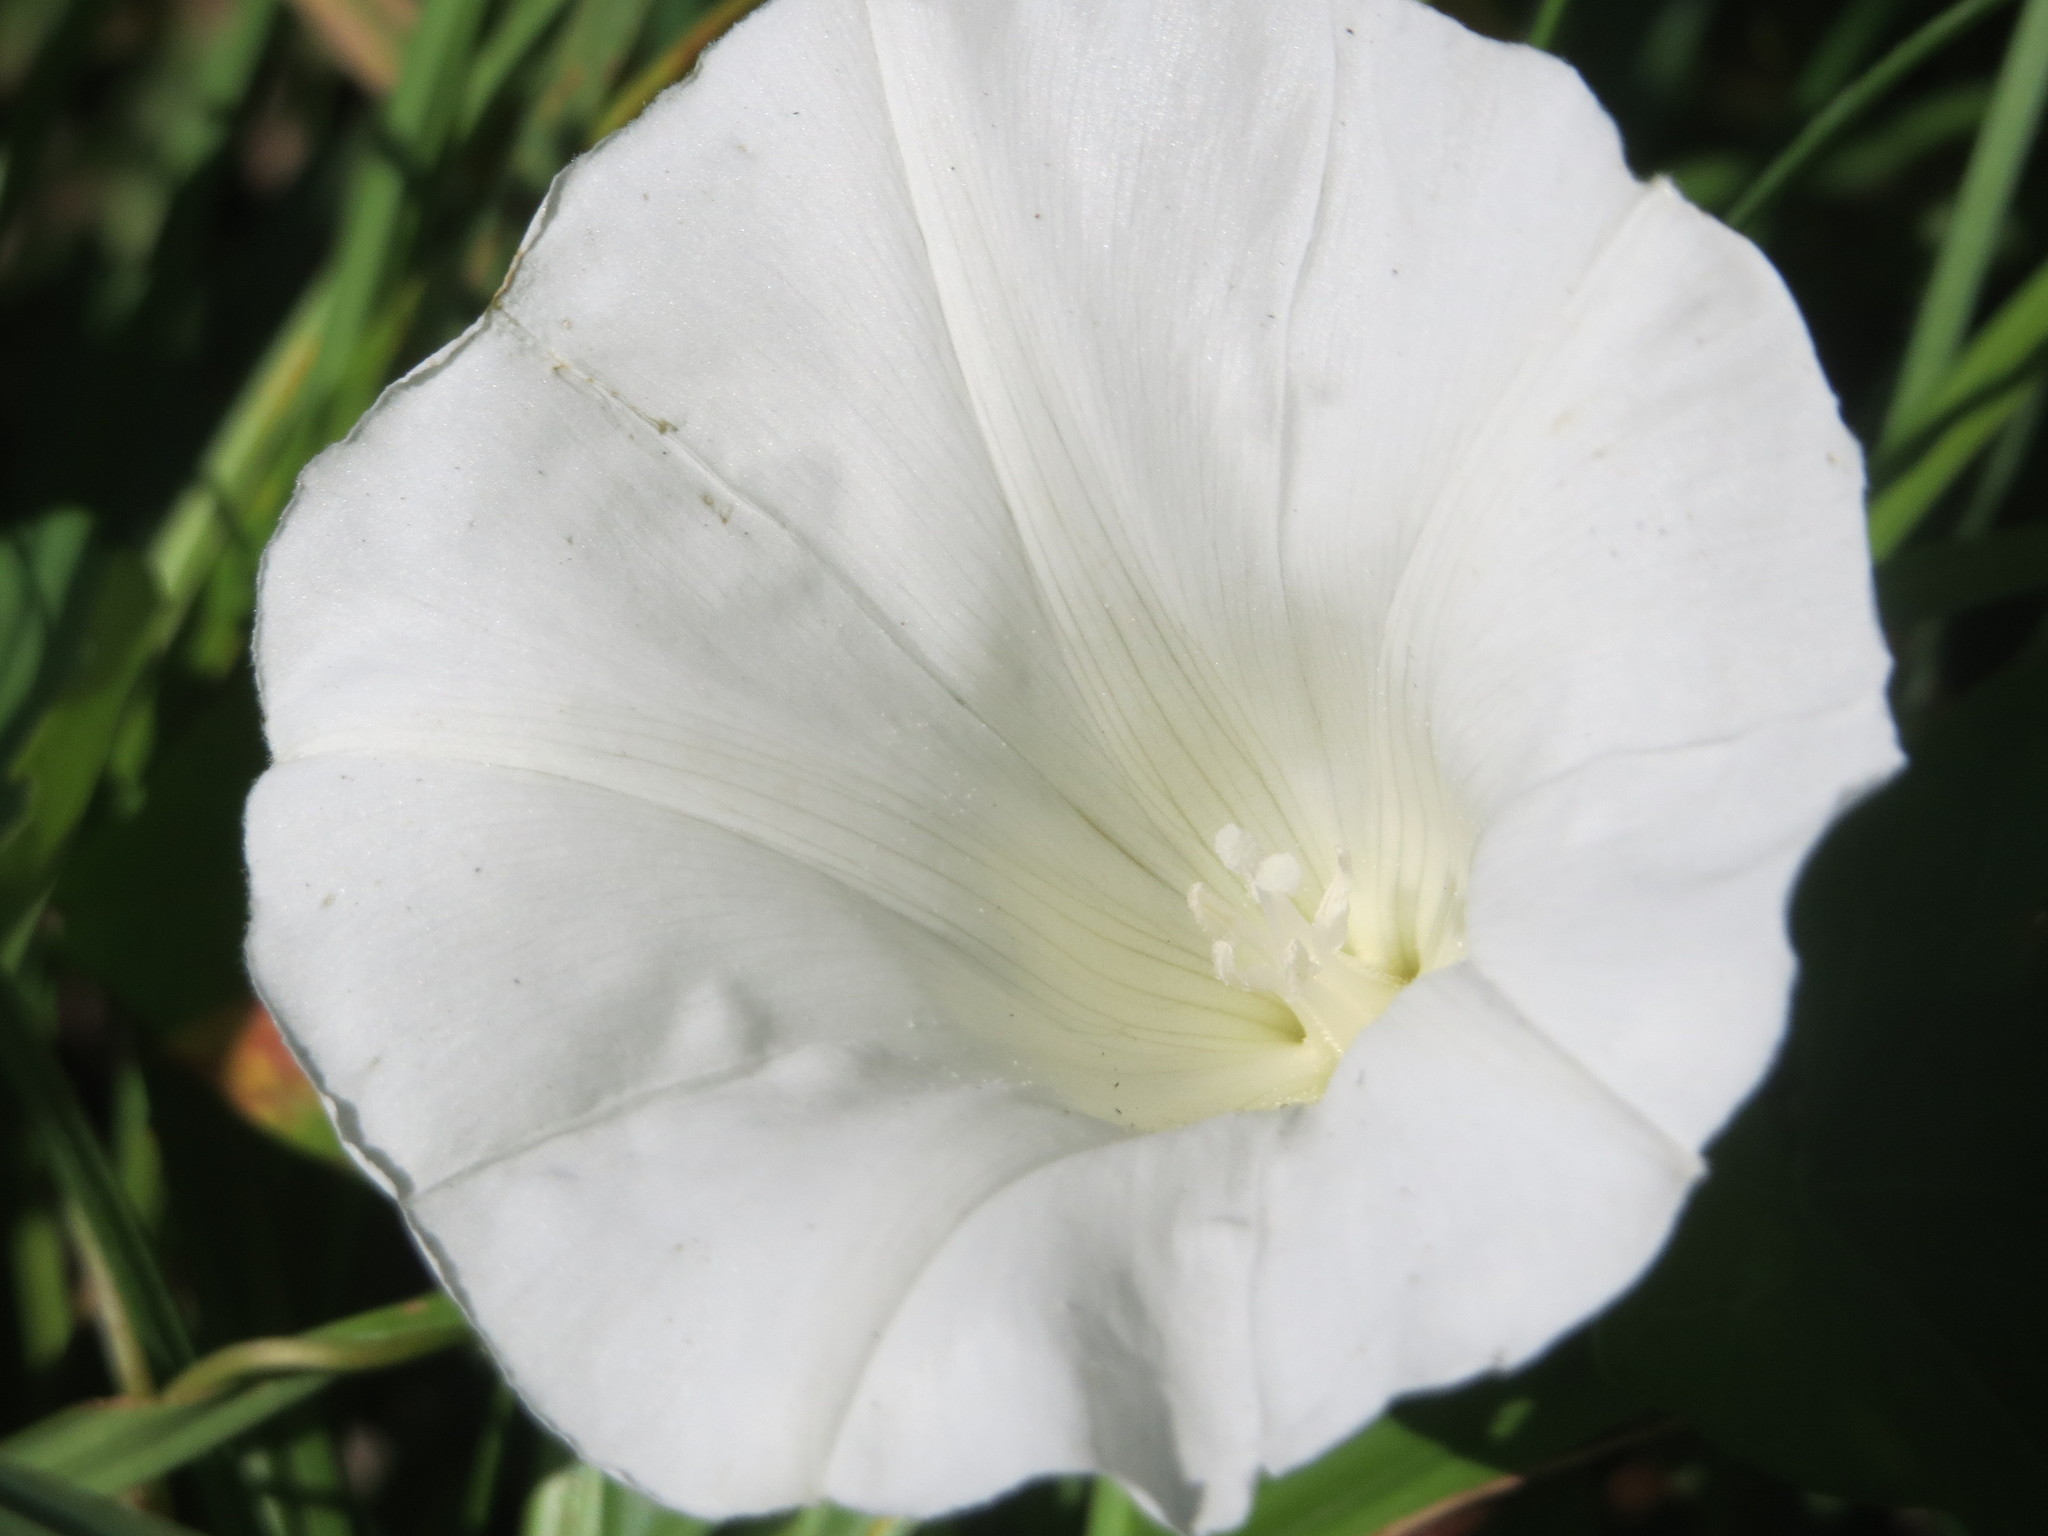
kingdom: Plantae
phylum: Tracheophyta
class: Magnoliopsida
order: Solanales
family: Convolvulaceae
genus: Calystegia
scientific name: Calystegia sepium
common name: Hedge bindweed
